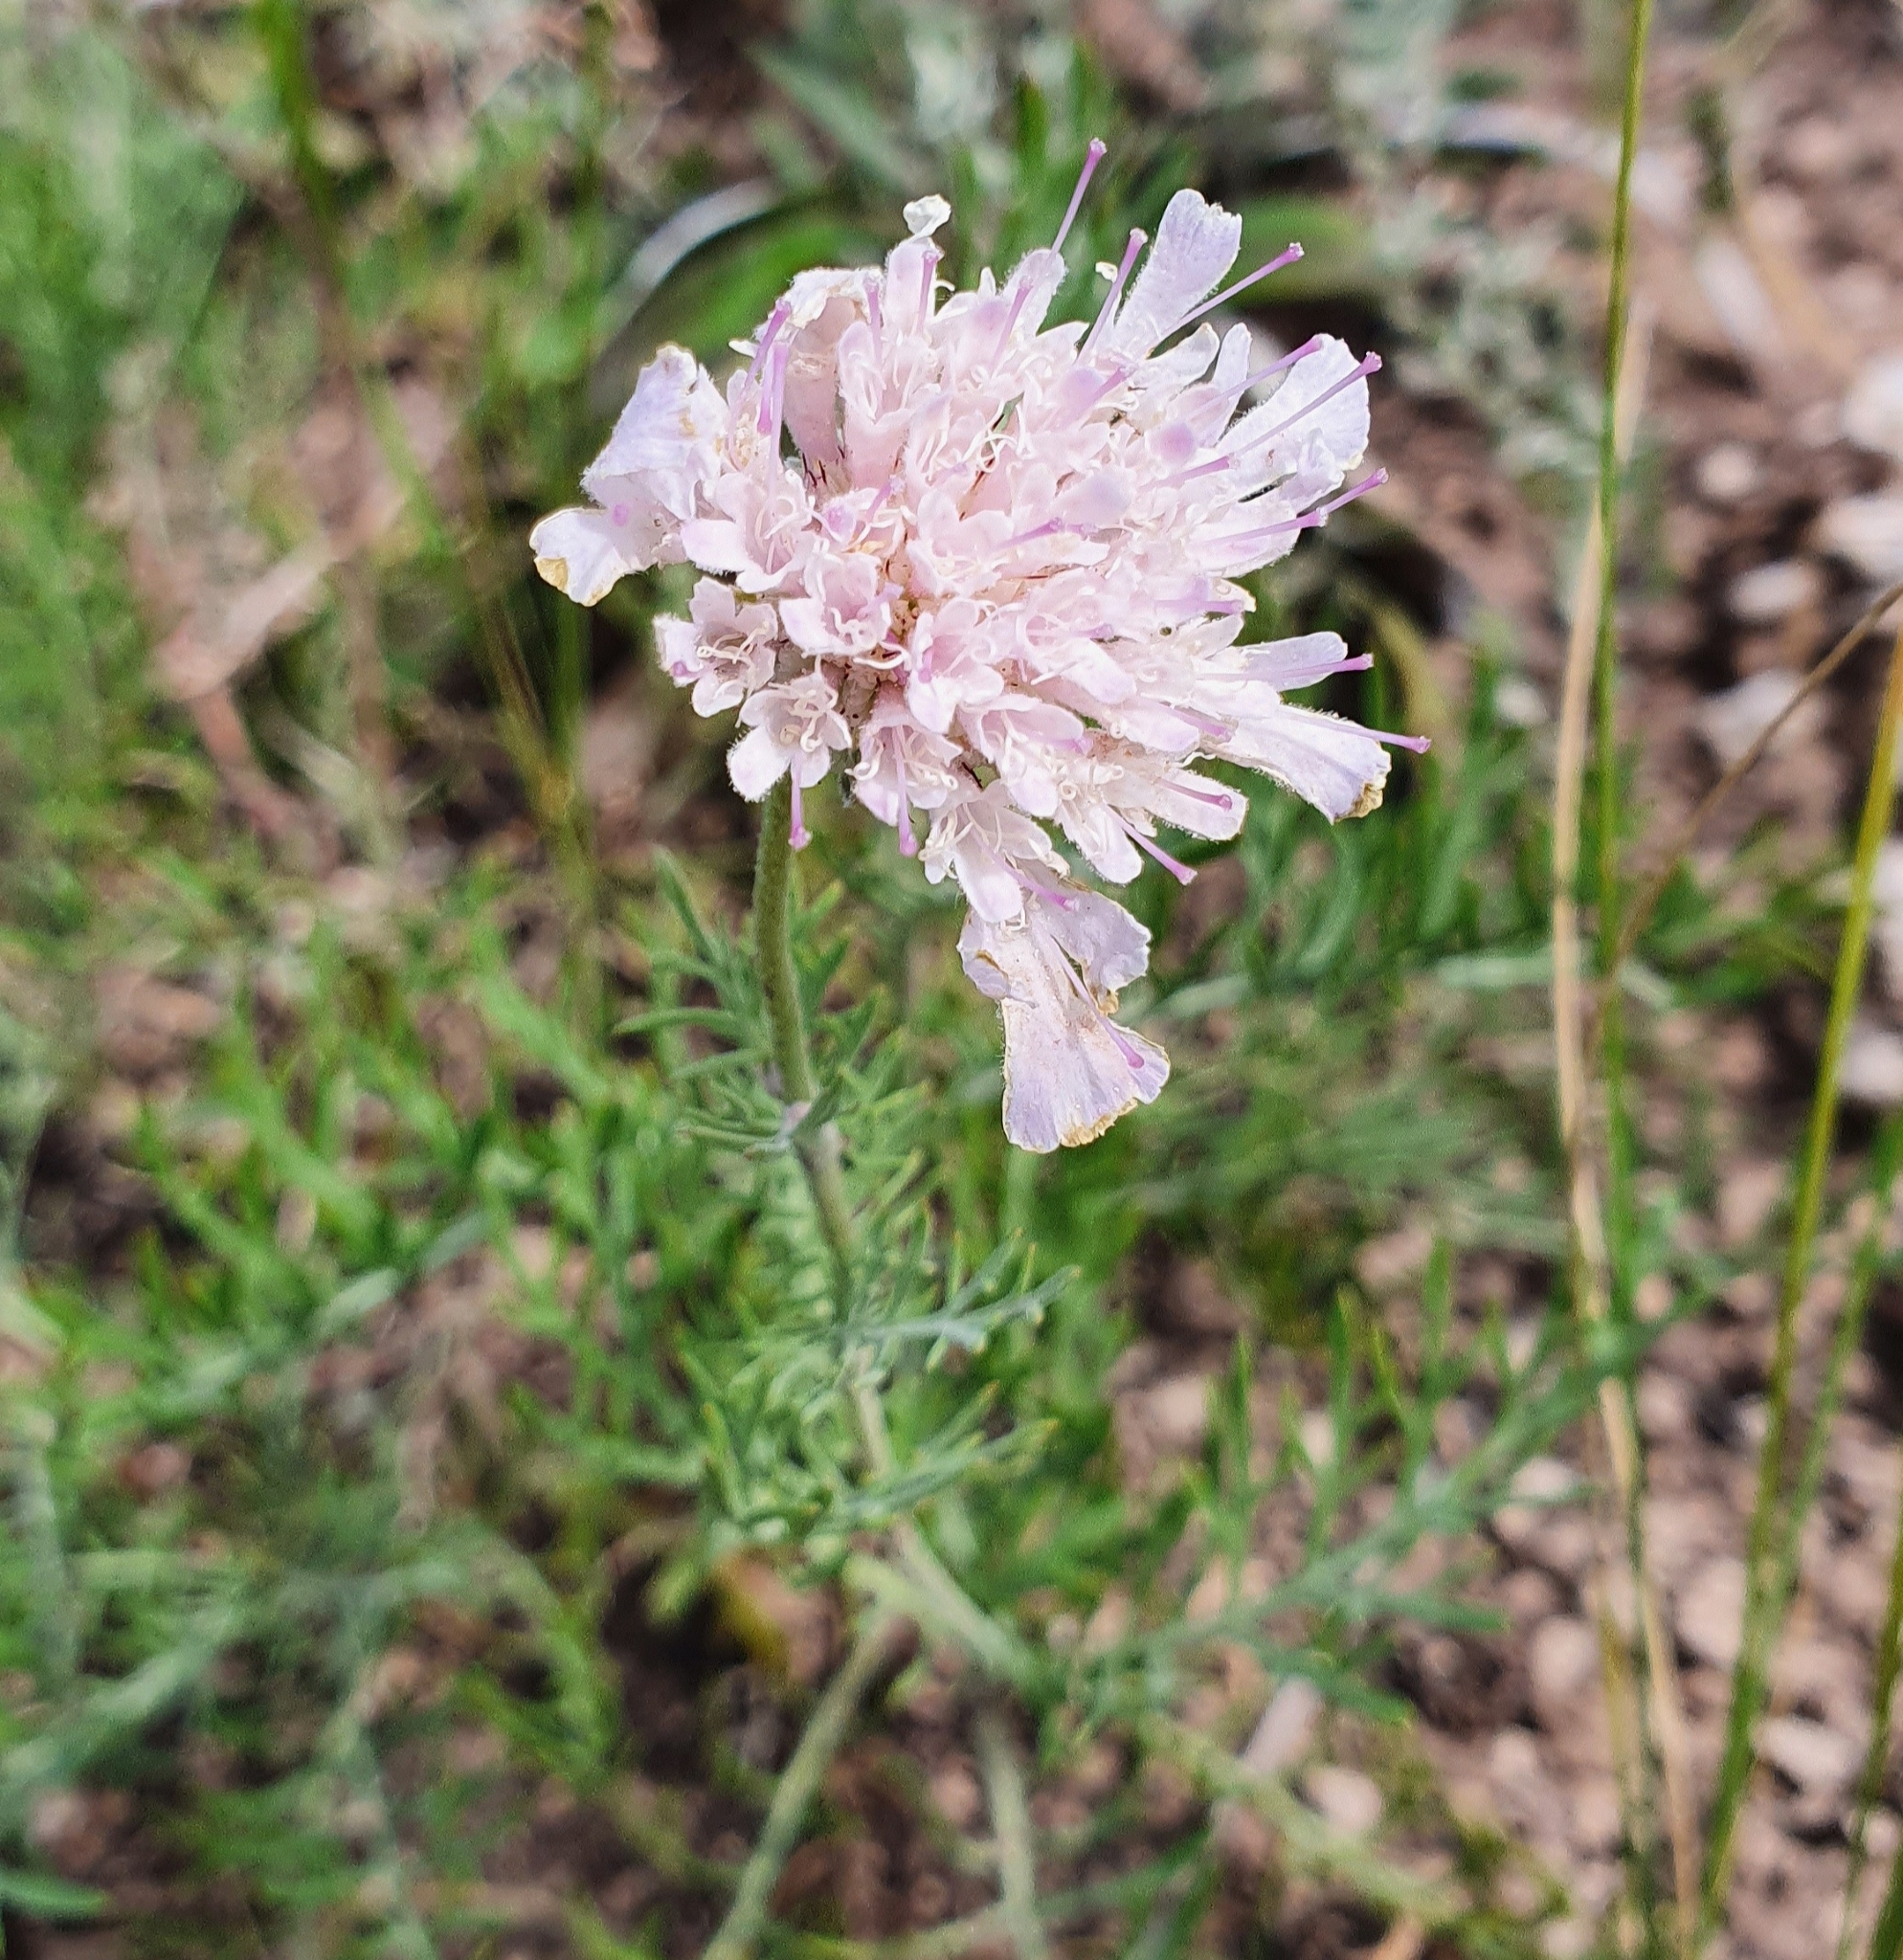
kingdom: Plantae
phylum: Tracheophyta
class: Magnoliopsida
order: Dipsacales
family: Caprifoliaceae
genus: Lomelosia
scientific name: Lomelosia isetensis
